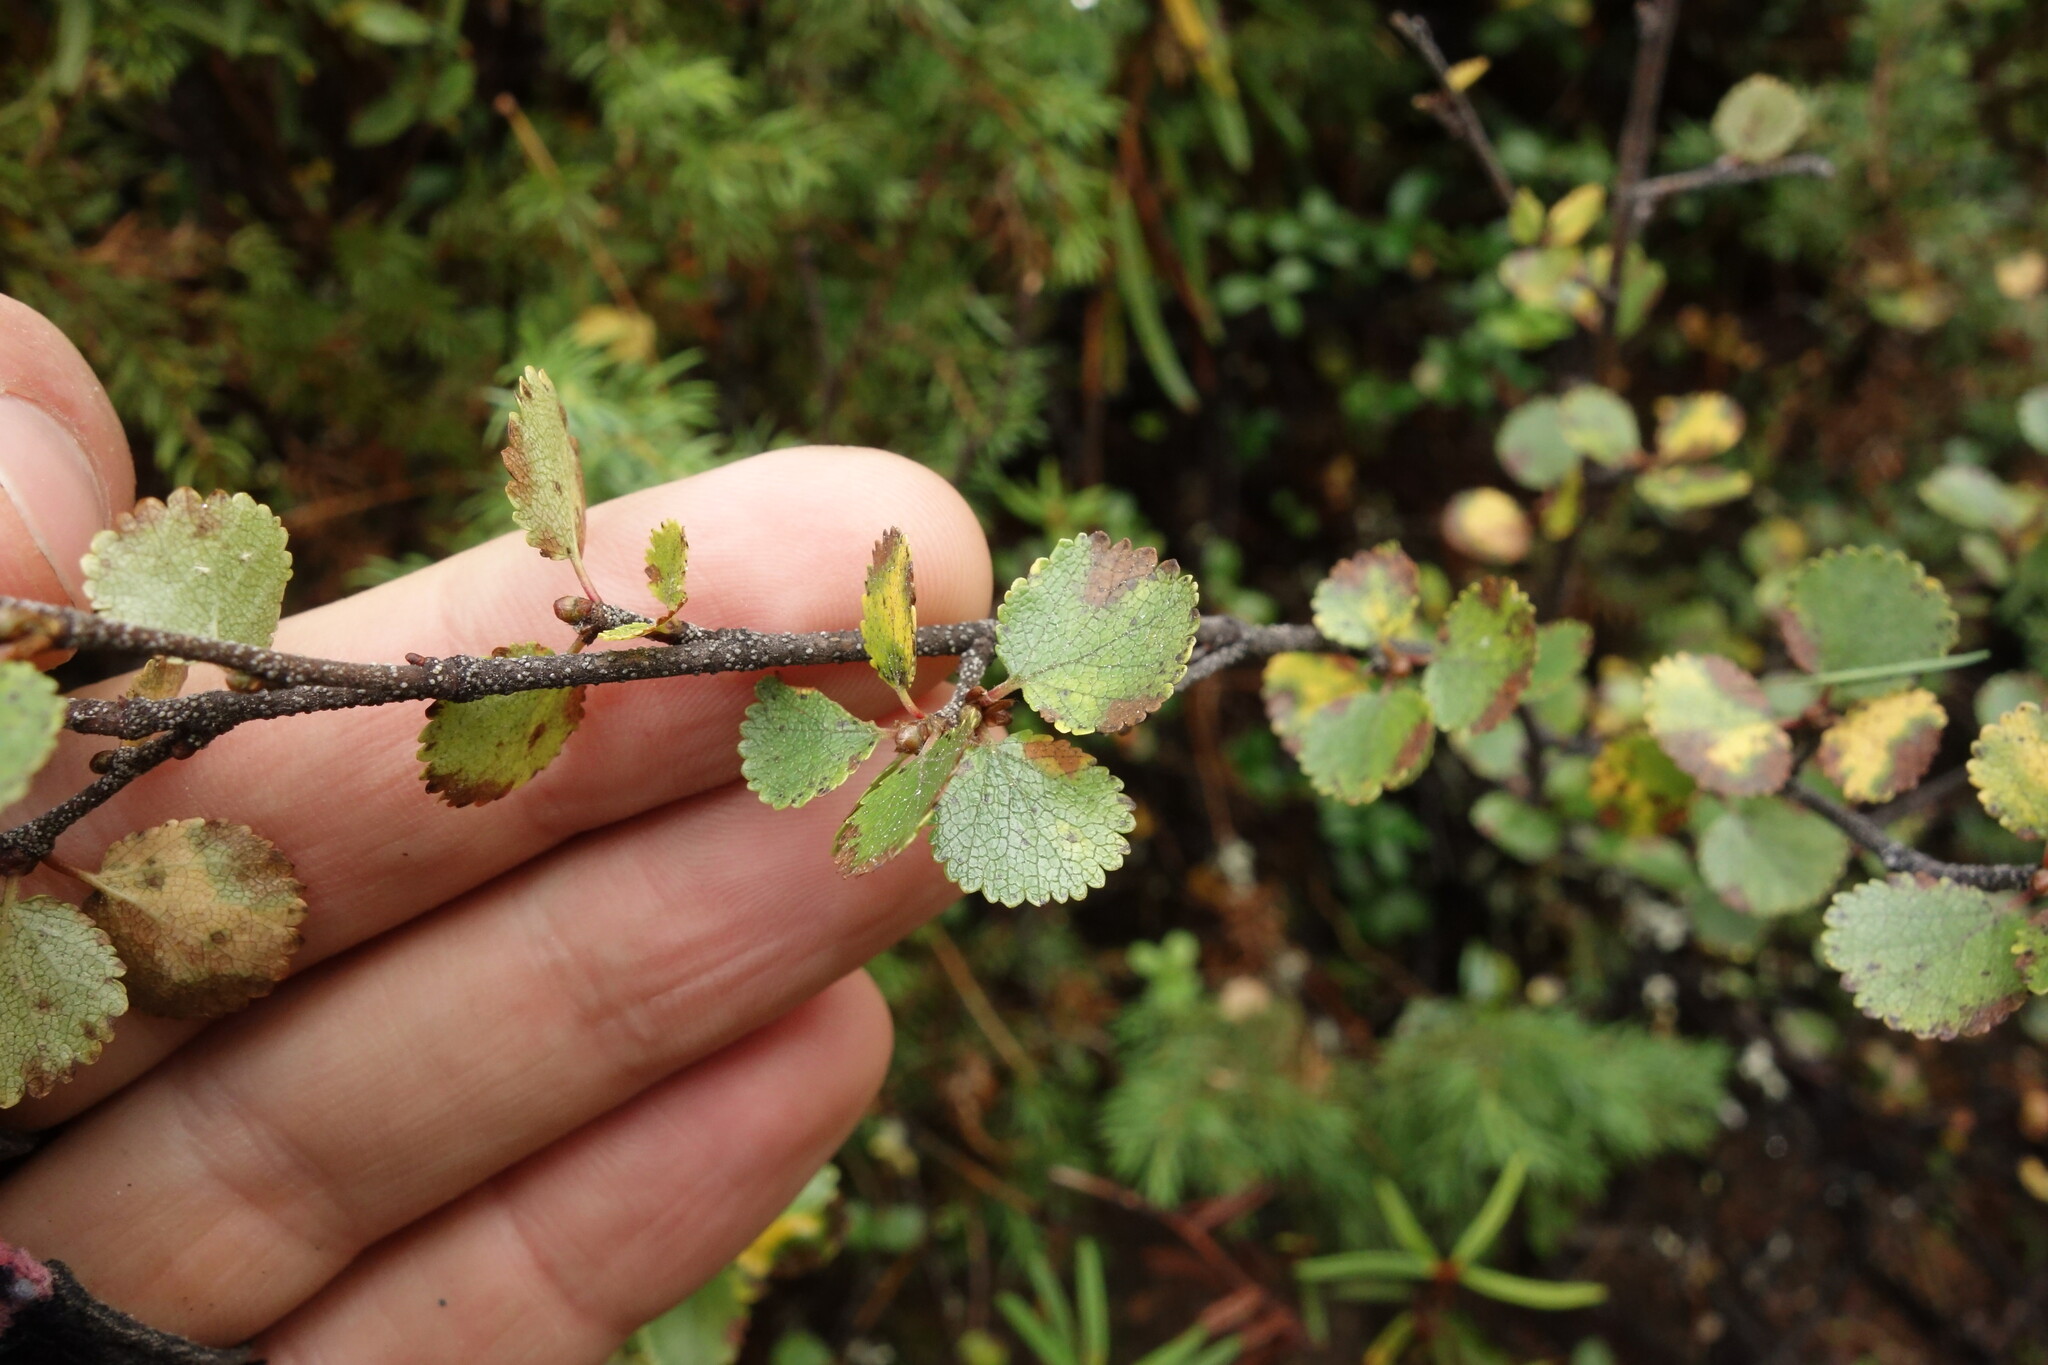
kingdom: Plantae
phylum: Tracheophyta
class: Magnoliopsida
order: Fagales
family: Betulaceae
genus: Betula
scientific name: Betula nana
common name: Arctic dwarf birch
